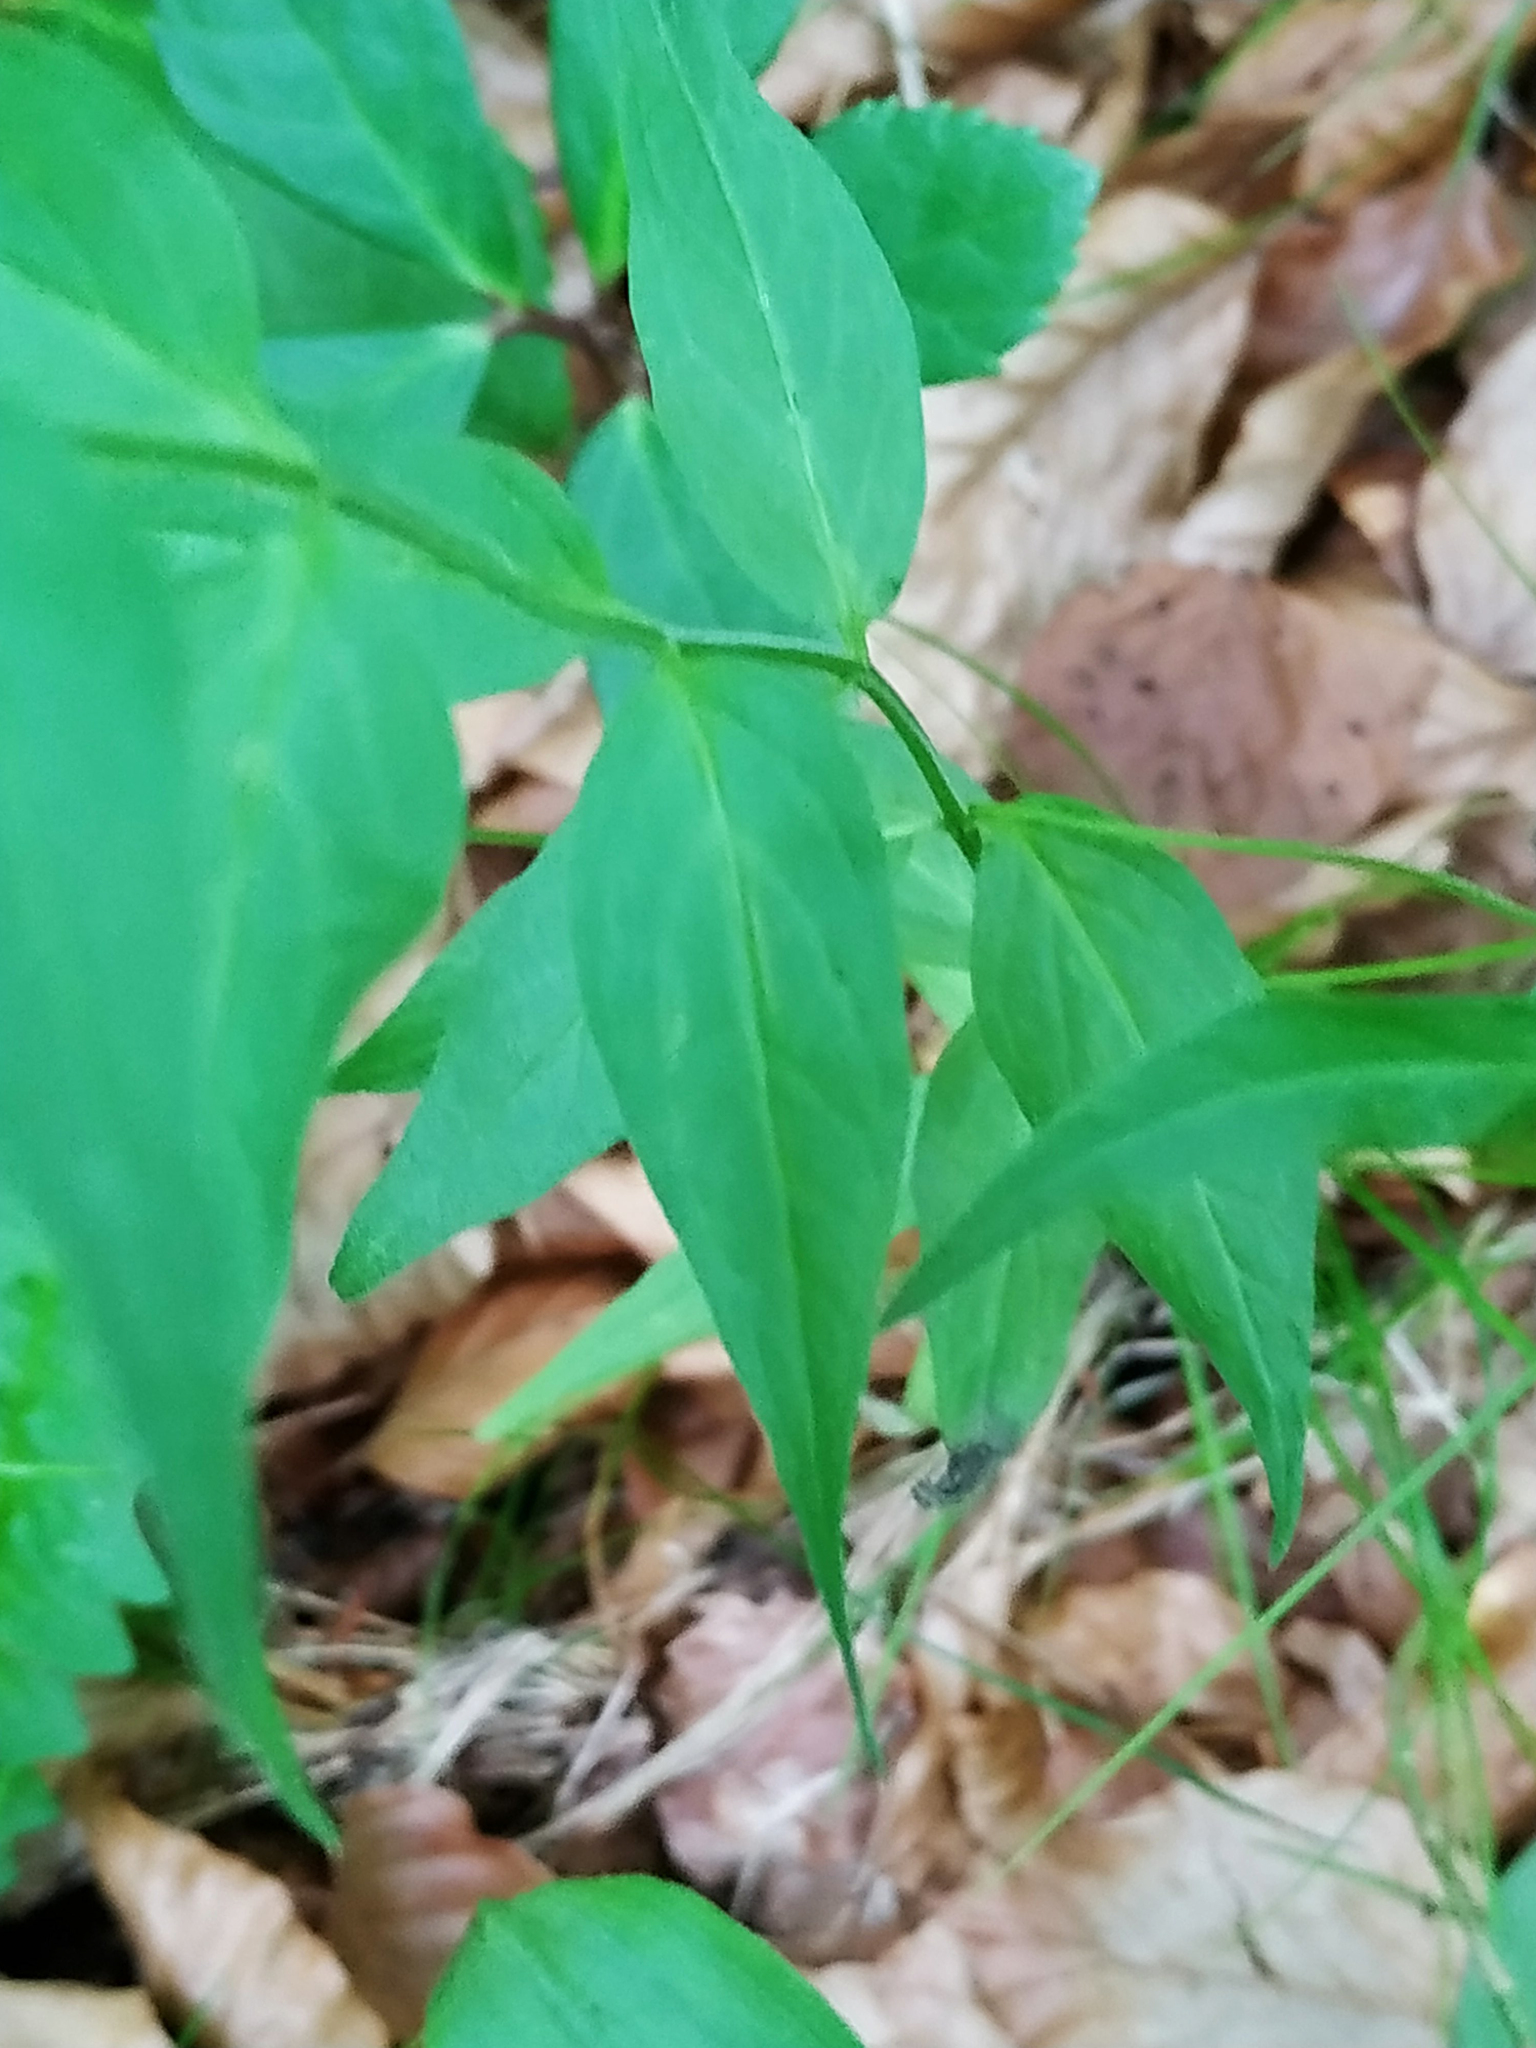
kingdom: Plantae
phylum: Tracheophyta
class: Magnoliopsida
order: Lamiales
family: Orobanchaceae
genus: Melampyrum
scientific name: Melampyrum pratense
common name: Common cow-wheat
